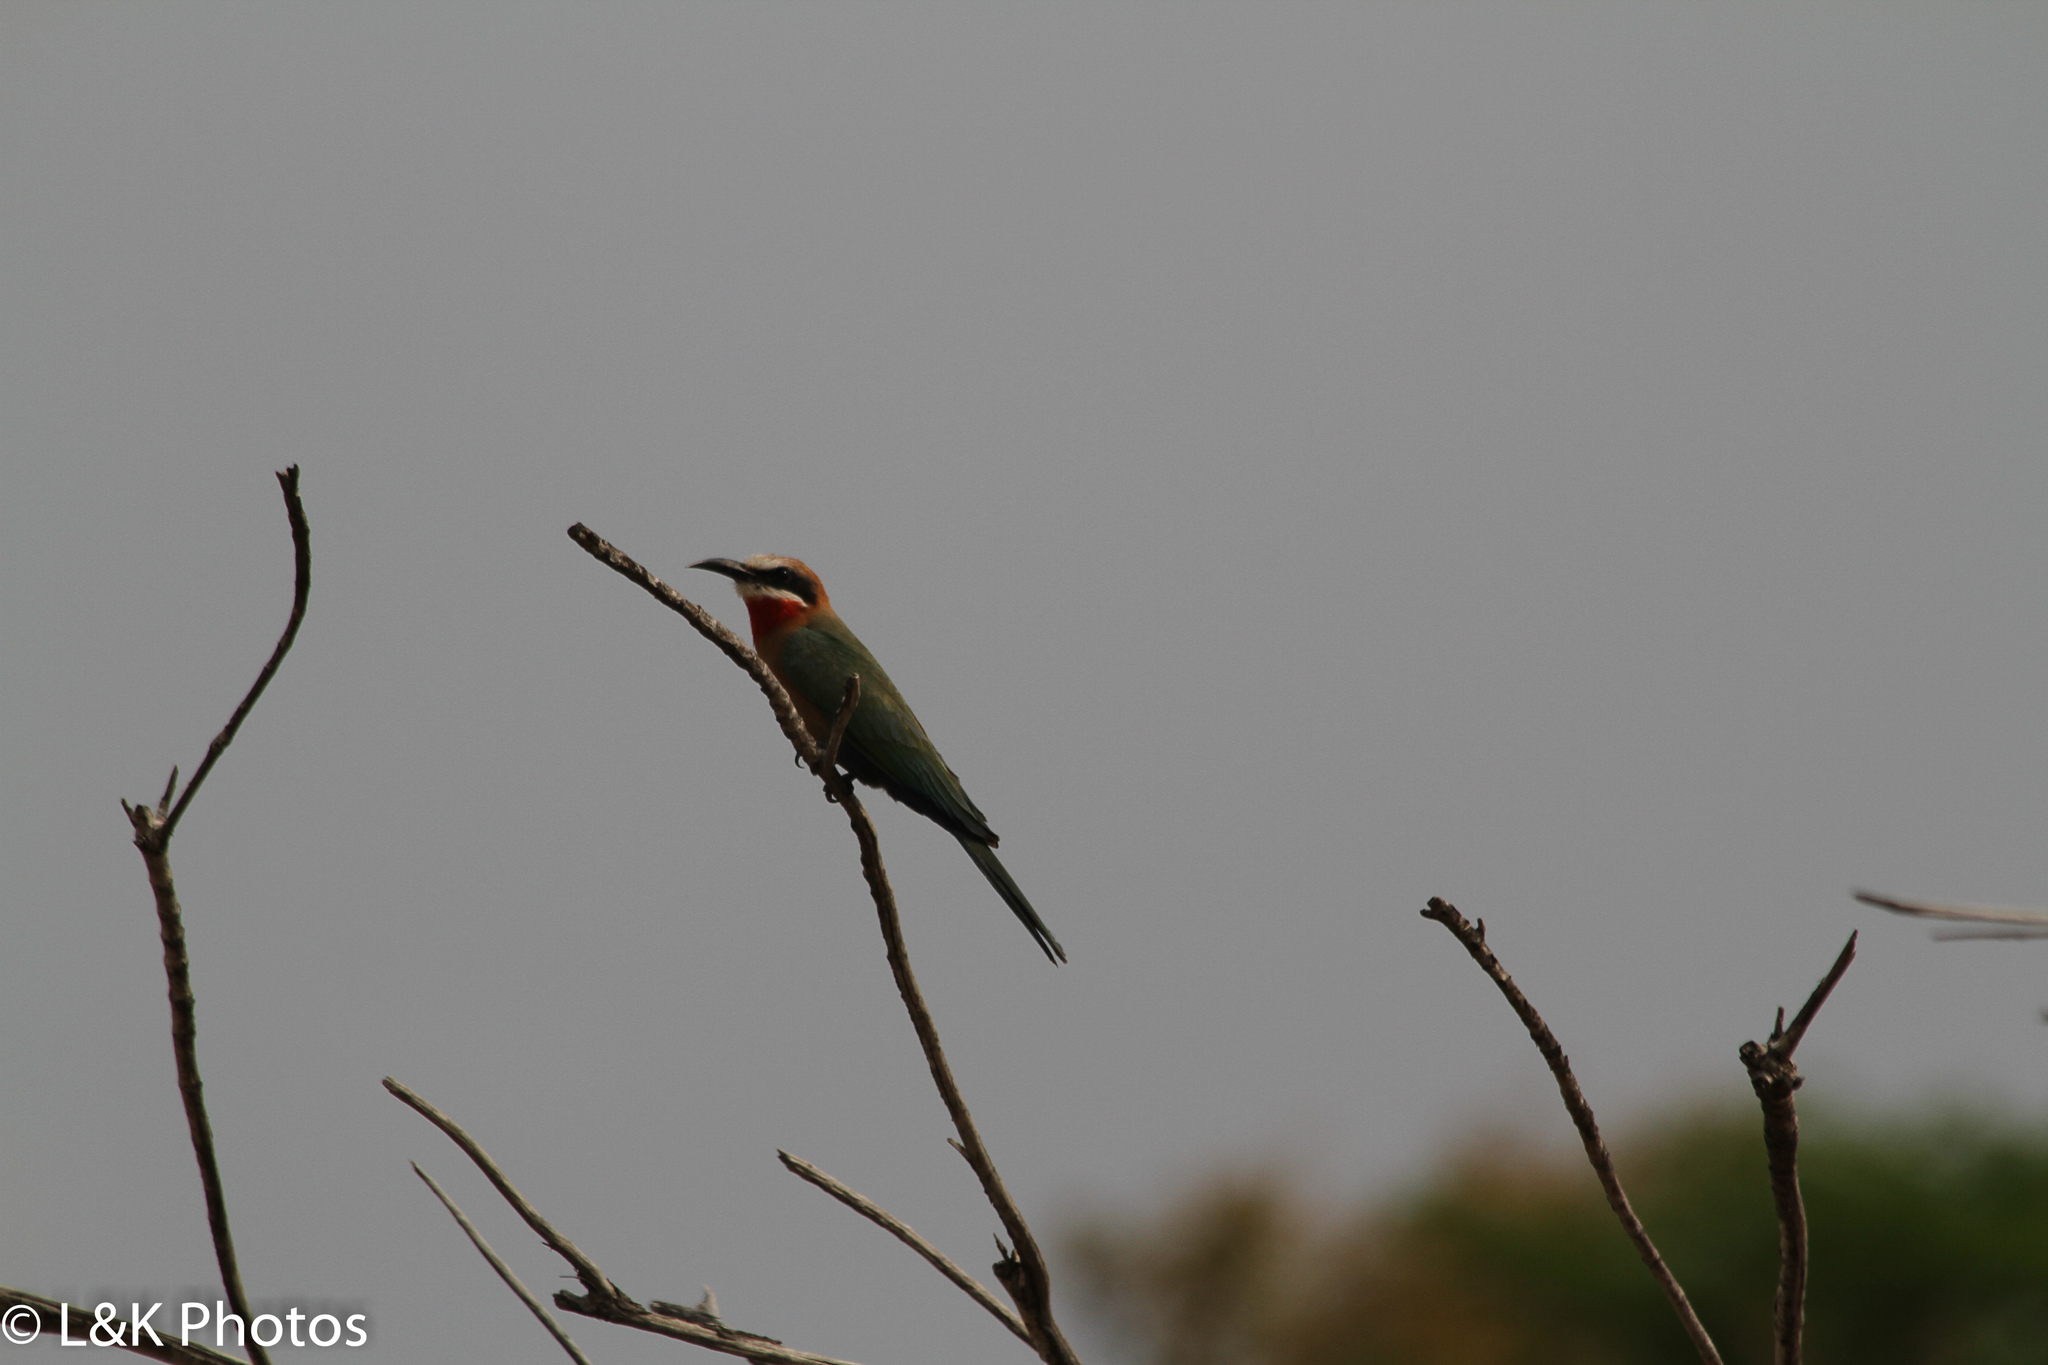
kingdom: Animalia
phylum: Chordata
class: Aves
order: Coraciiformes
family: Meropidae
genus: Merops
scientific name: Merops bullockoides
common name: White-fronted bee-eater
